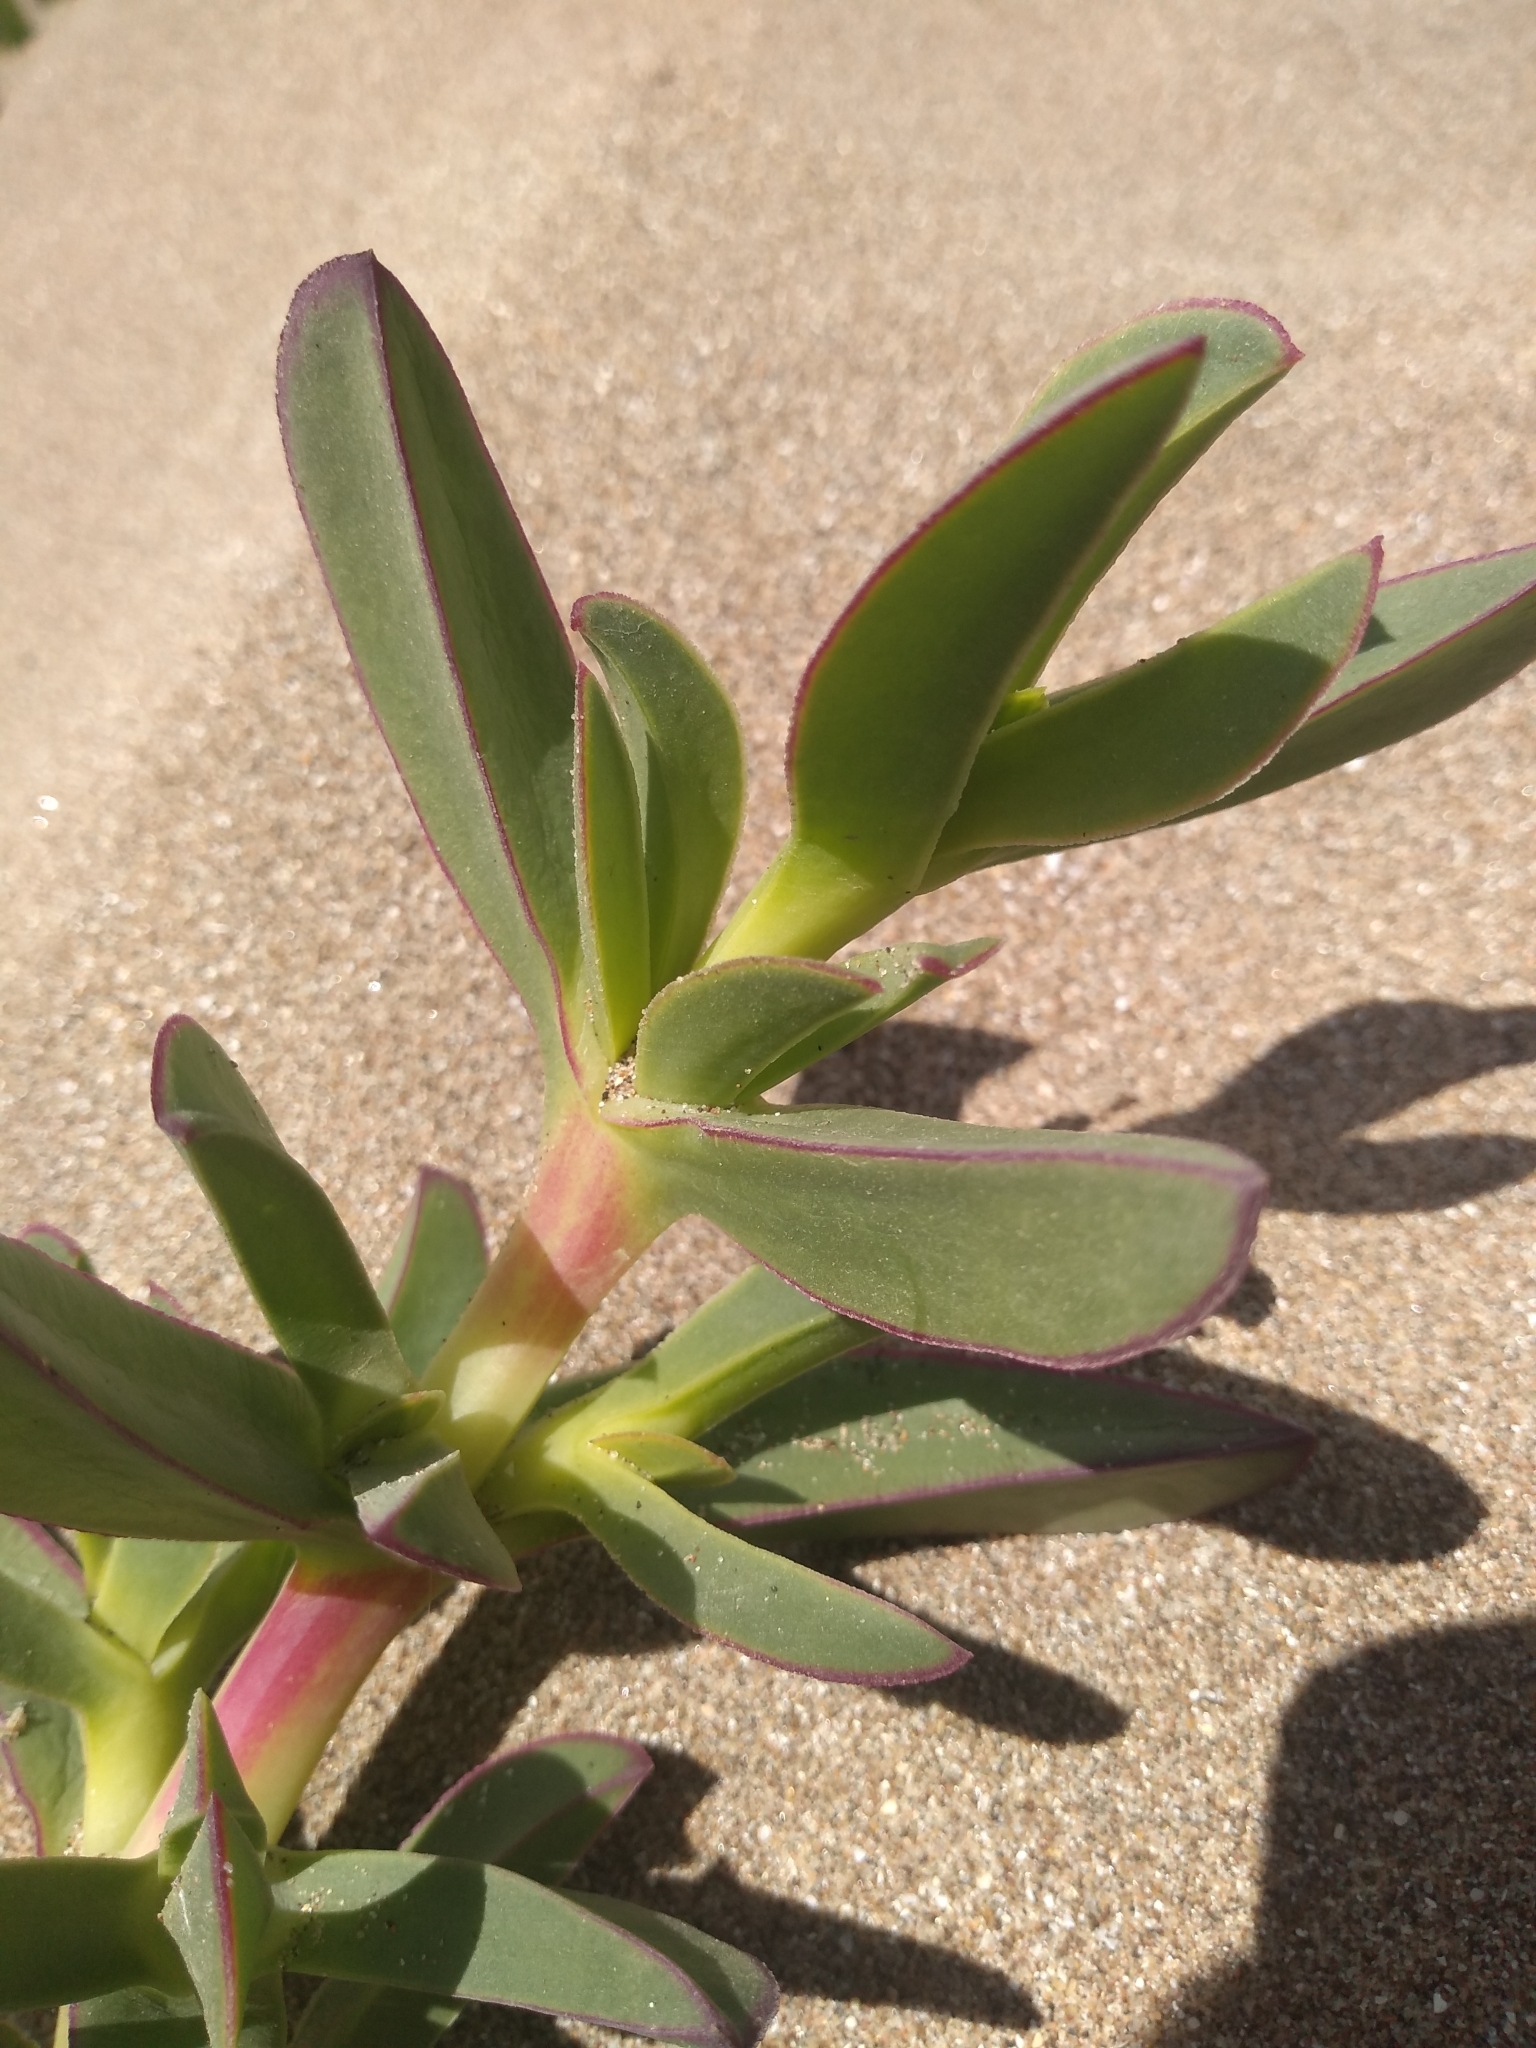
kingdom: Plantae
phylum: Tracheophyta
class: Magnoliopsida
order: Caryophyllales
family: Aizoaceae
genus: Carpobrotus
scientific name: Carpobrotus edulis
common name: Hottentot-fig
